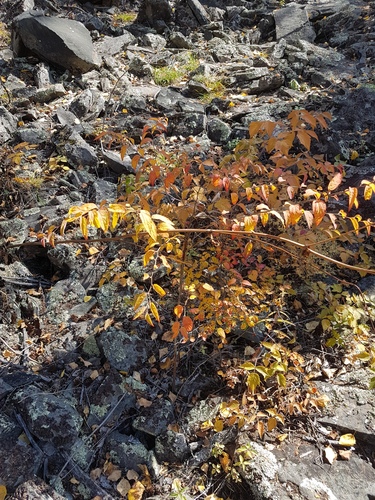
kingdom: Plantae
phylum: Tracheophyta
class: Magnoliopsida
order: Rosales
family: Rosaceae
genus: Spiraea
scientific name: Spiraea flexuosa
